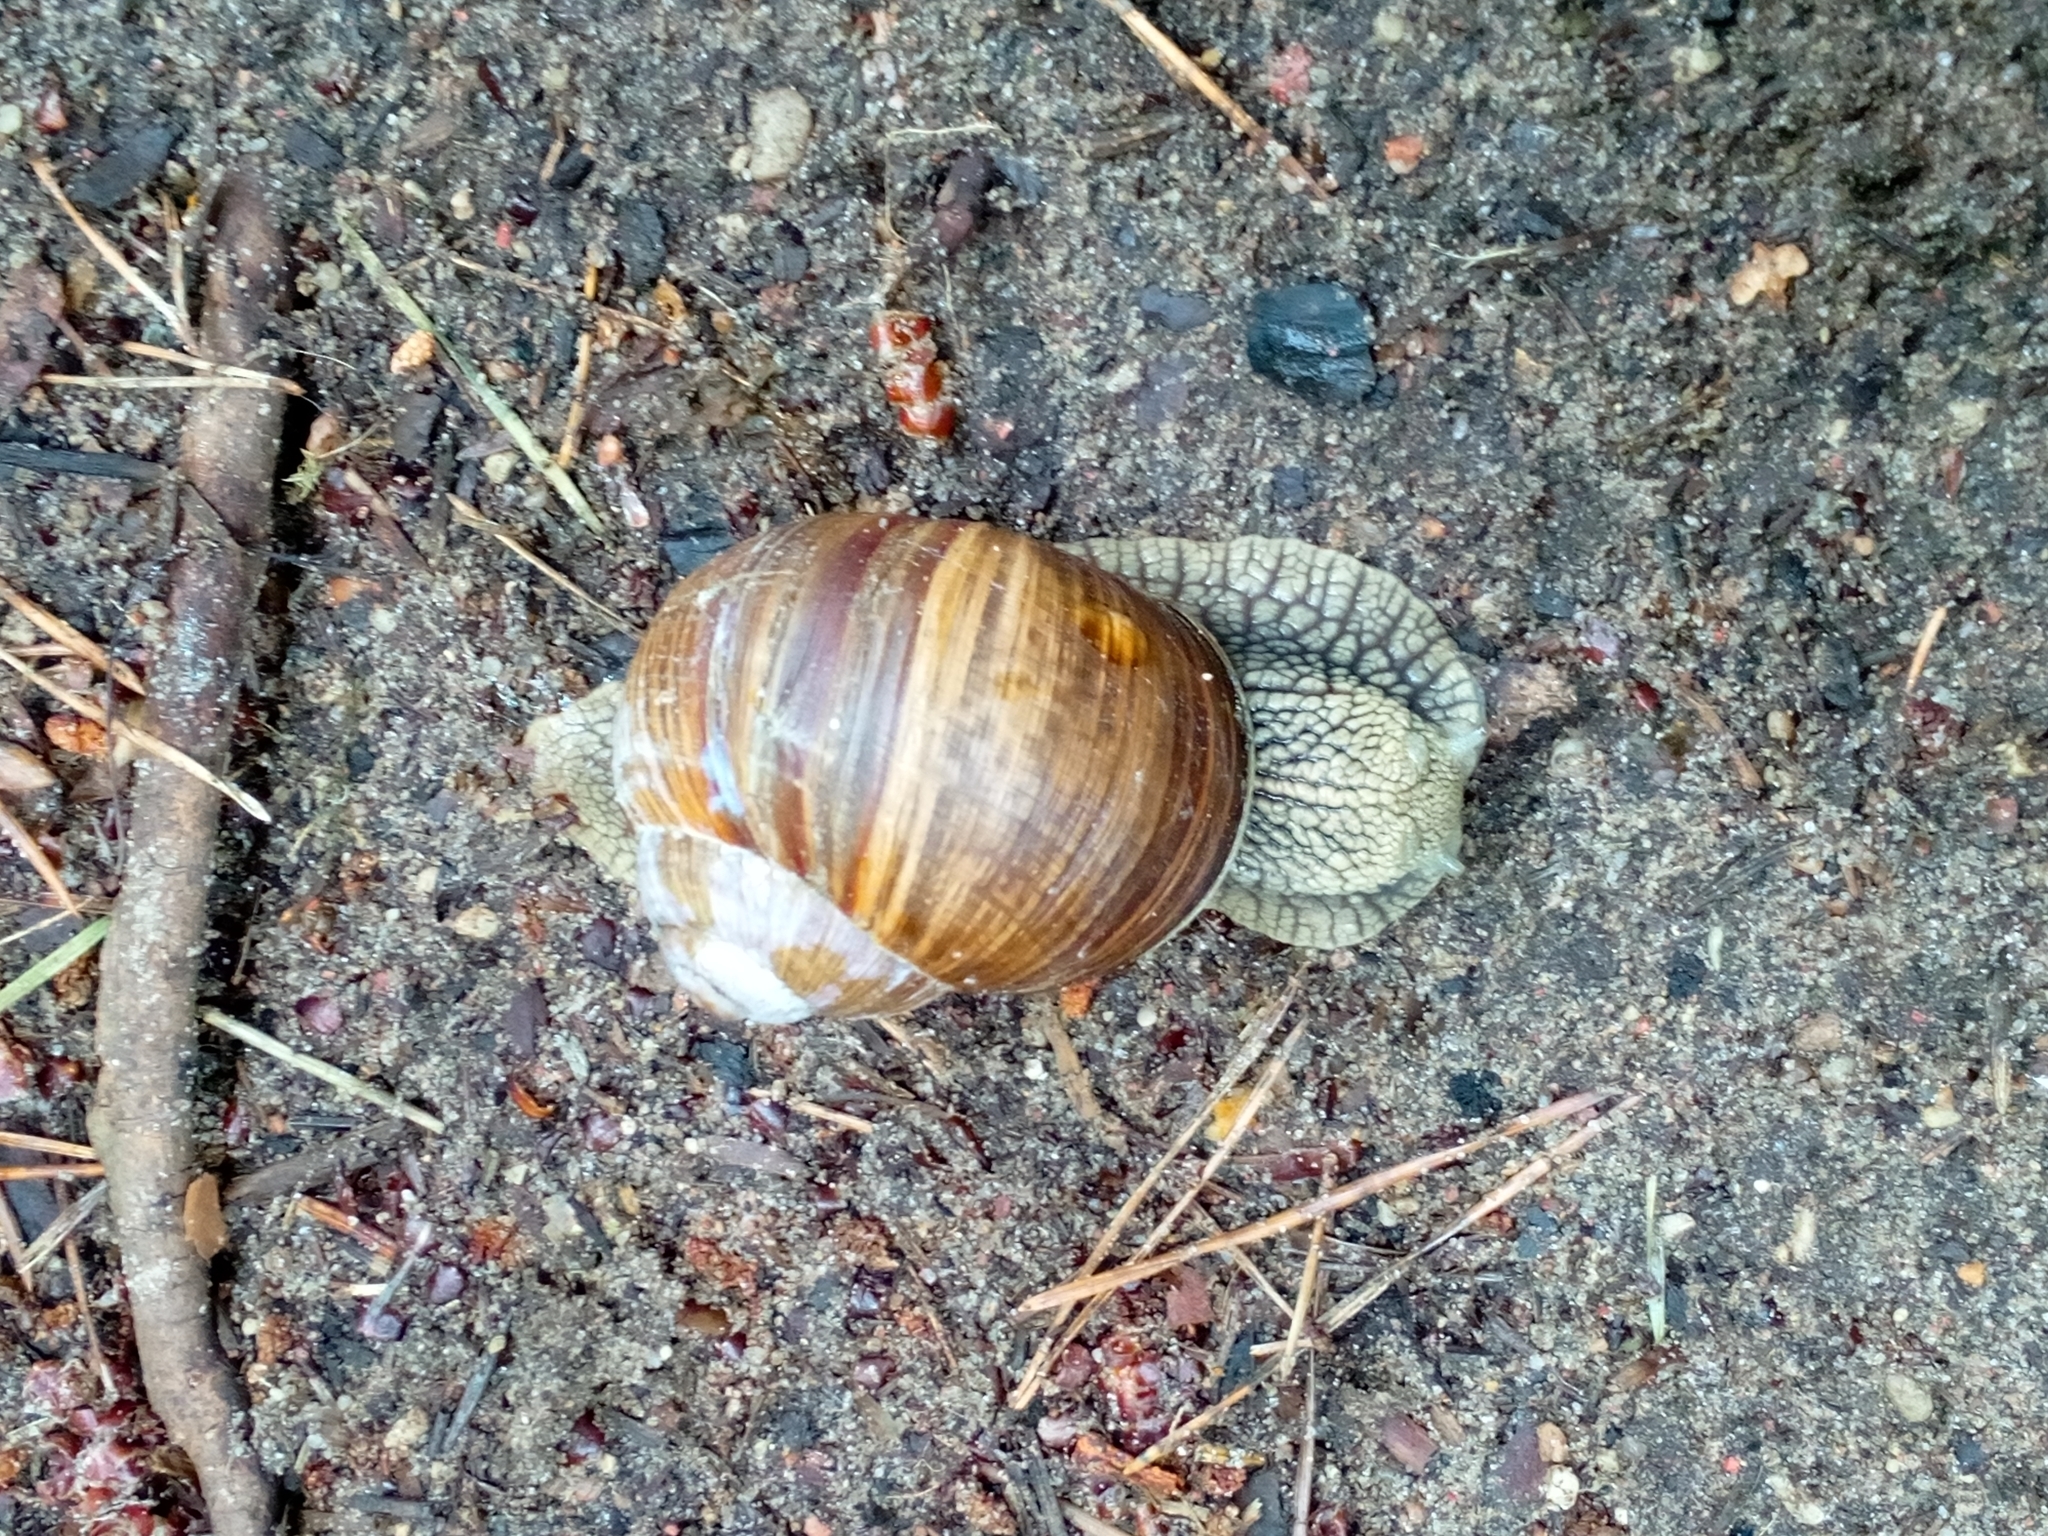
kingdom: Animalia
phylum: Mollusca
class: Gastropoda
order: Stylommatophora
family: Helicidae
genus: Helix
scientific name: Helix pomatia
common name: Roman snail
